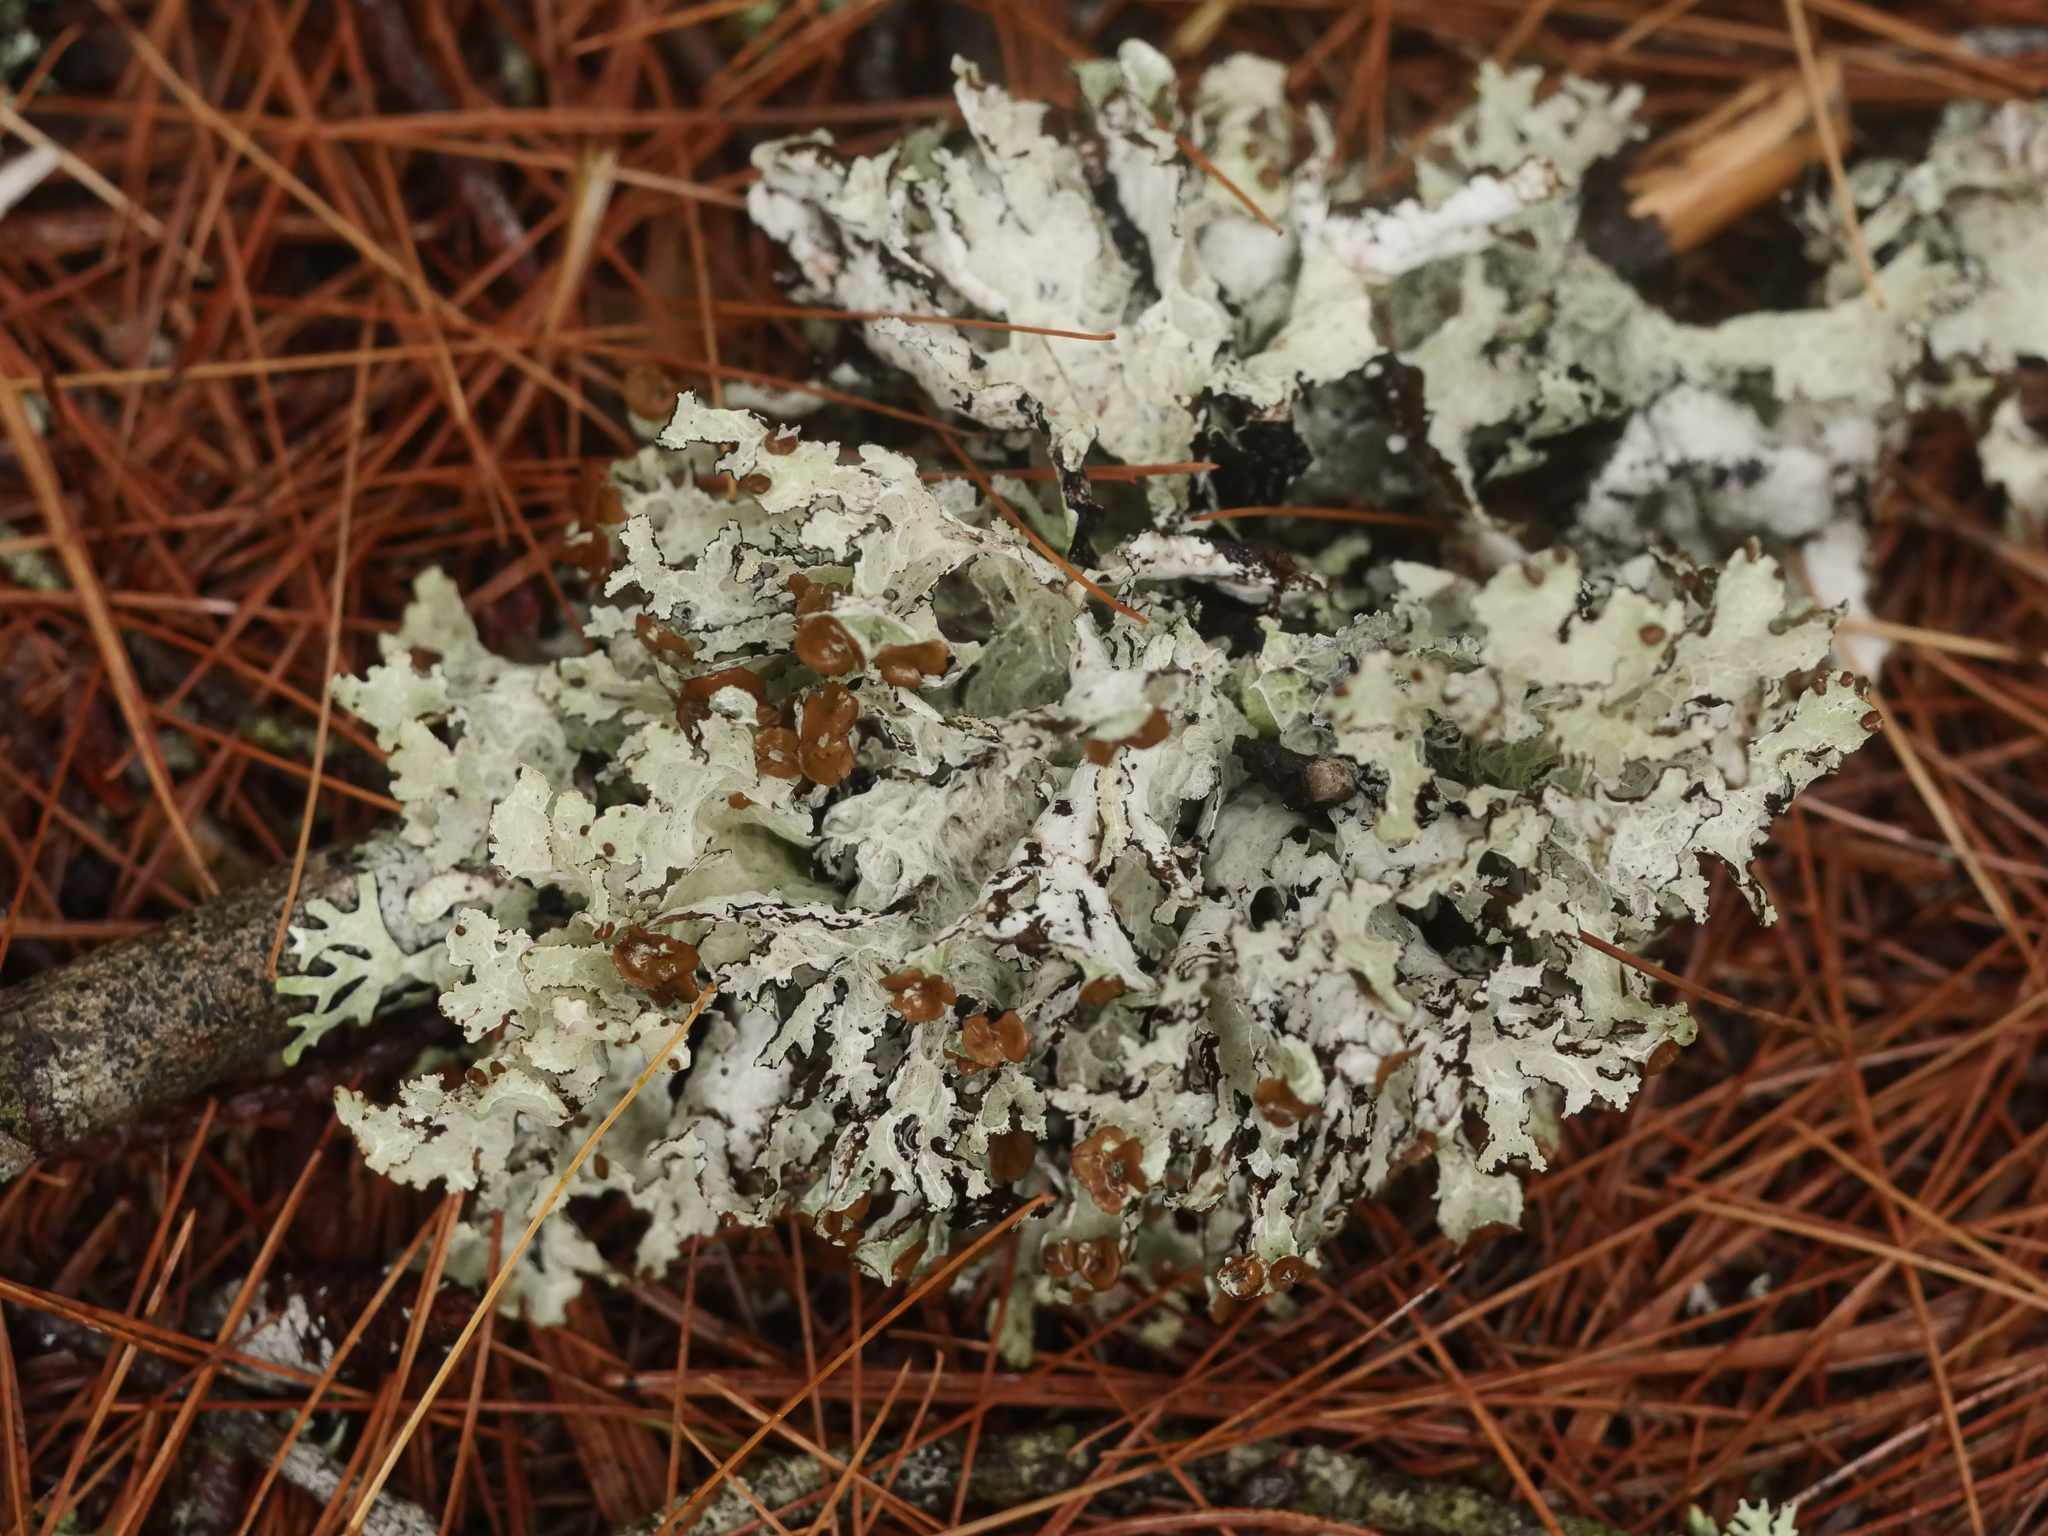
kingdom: Fungi
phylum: Ascomycota
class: Lecanoromycetes
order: Lecanorales
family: Parmeliaceae
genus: Platismatia
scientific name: Platismatia tuckermanii
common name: Crumpled rag lichen
